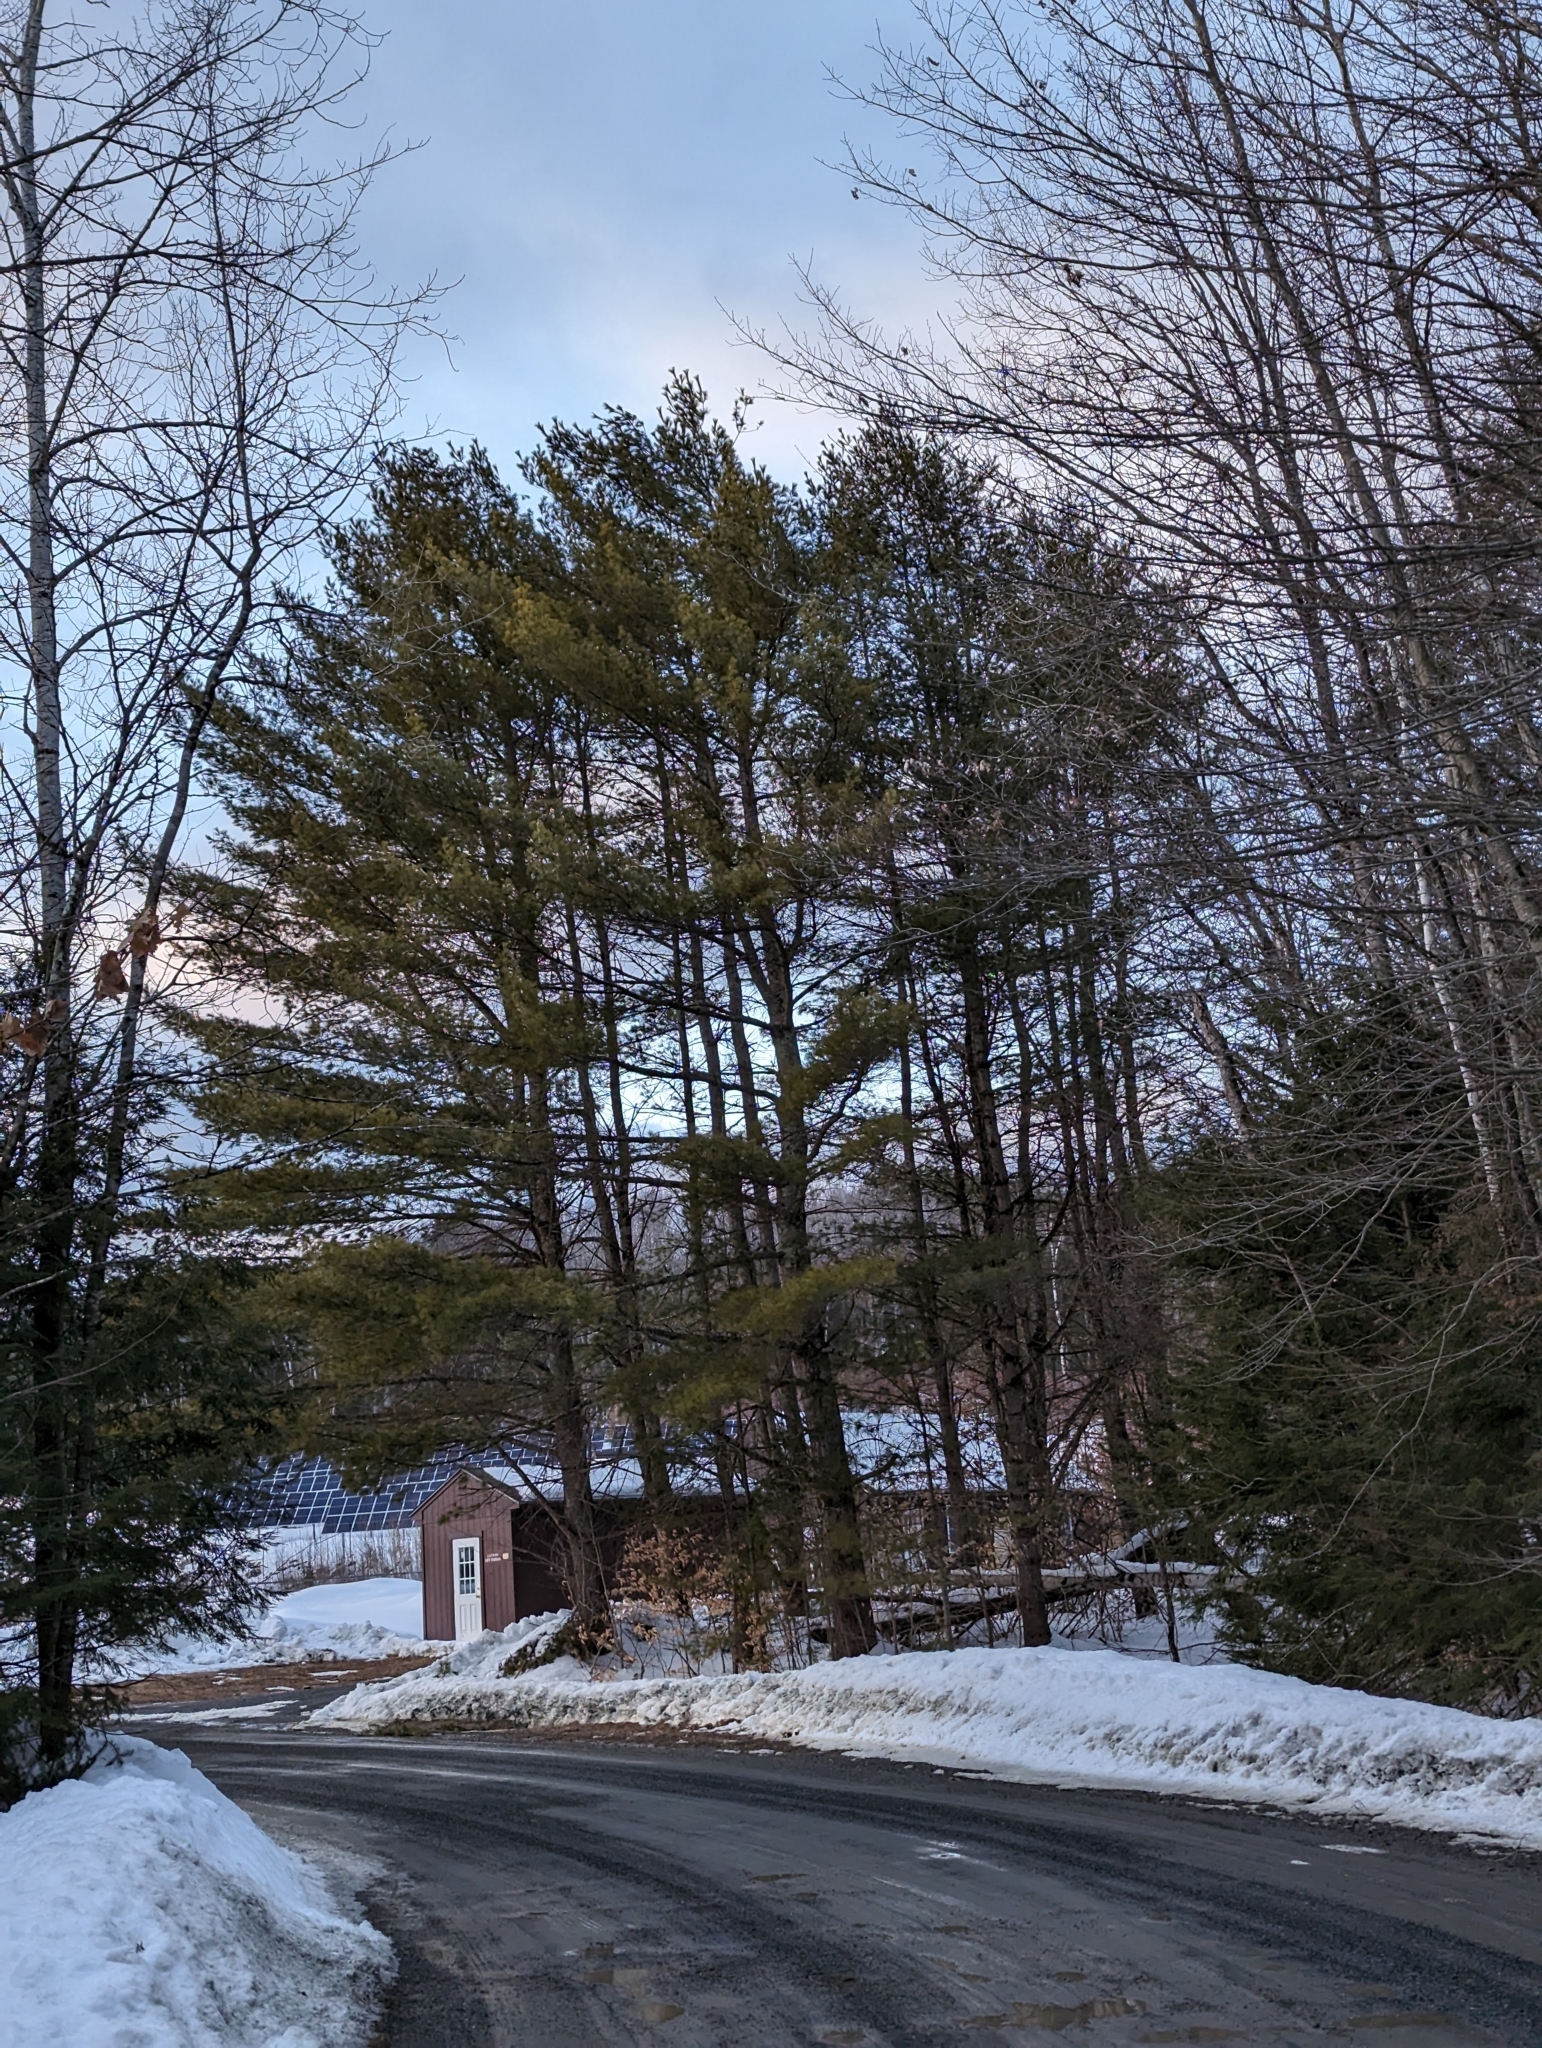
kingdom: Plantae
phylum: Tracheophyta
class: Pinopsida
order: Pinales
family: Pinaceae
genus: Pinus
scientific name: Pinus strobus
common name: Weymouth pine
